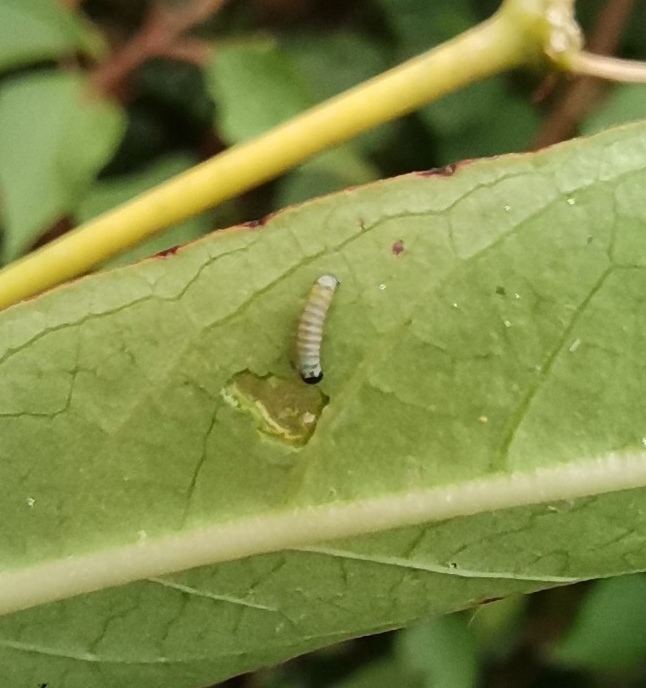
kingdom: Animalia
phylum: Arthropoda
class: Insecta
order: Lepidoptera
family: Nymphalidae
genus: Danaus
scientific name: Danaus plexippus
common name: Monarch
